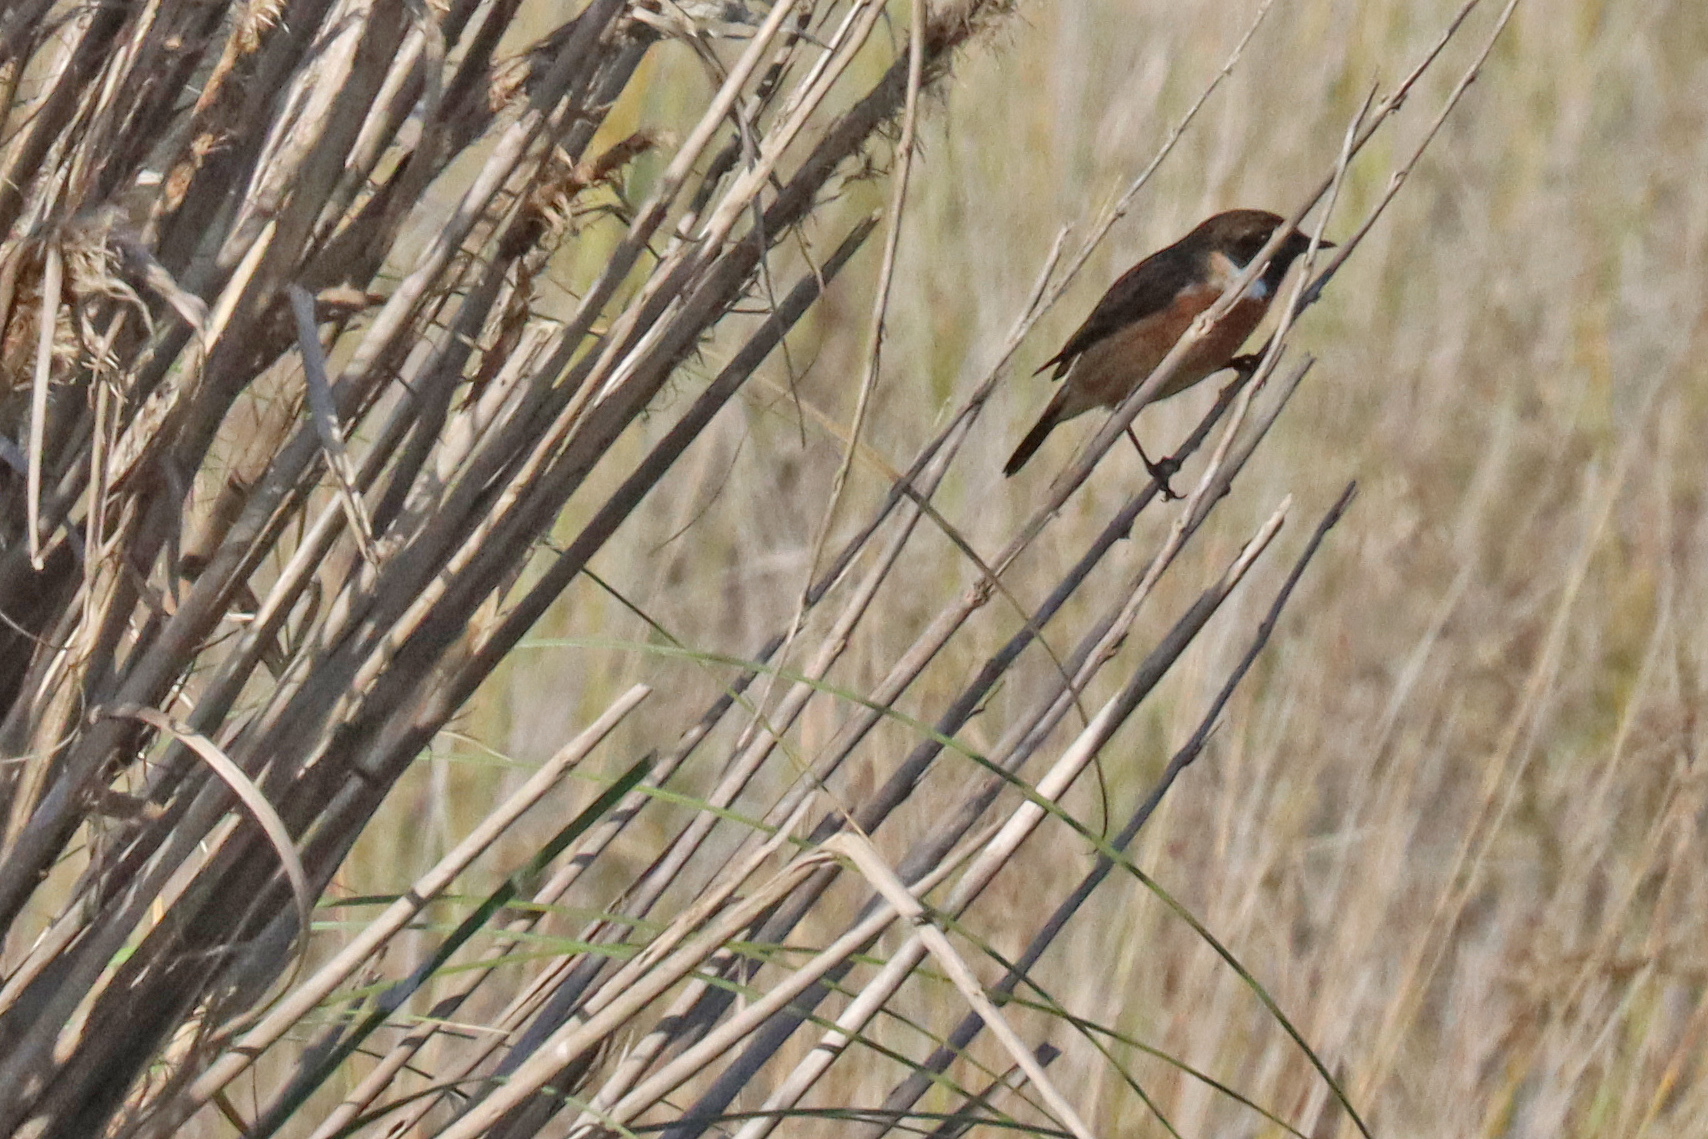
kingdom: Animalia
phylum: Chordata
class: Aves
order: Passeriformes
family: Muscicapidae
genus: Saxicola
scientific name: Saxicola rubicola
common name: European stonechat
